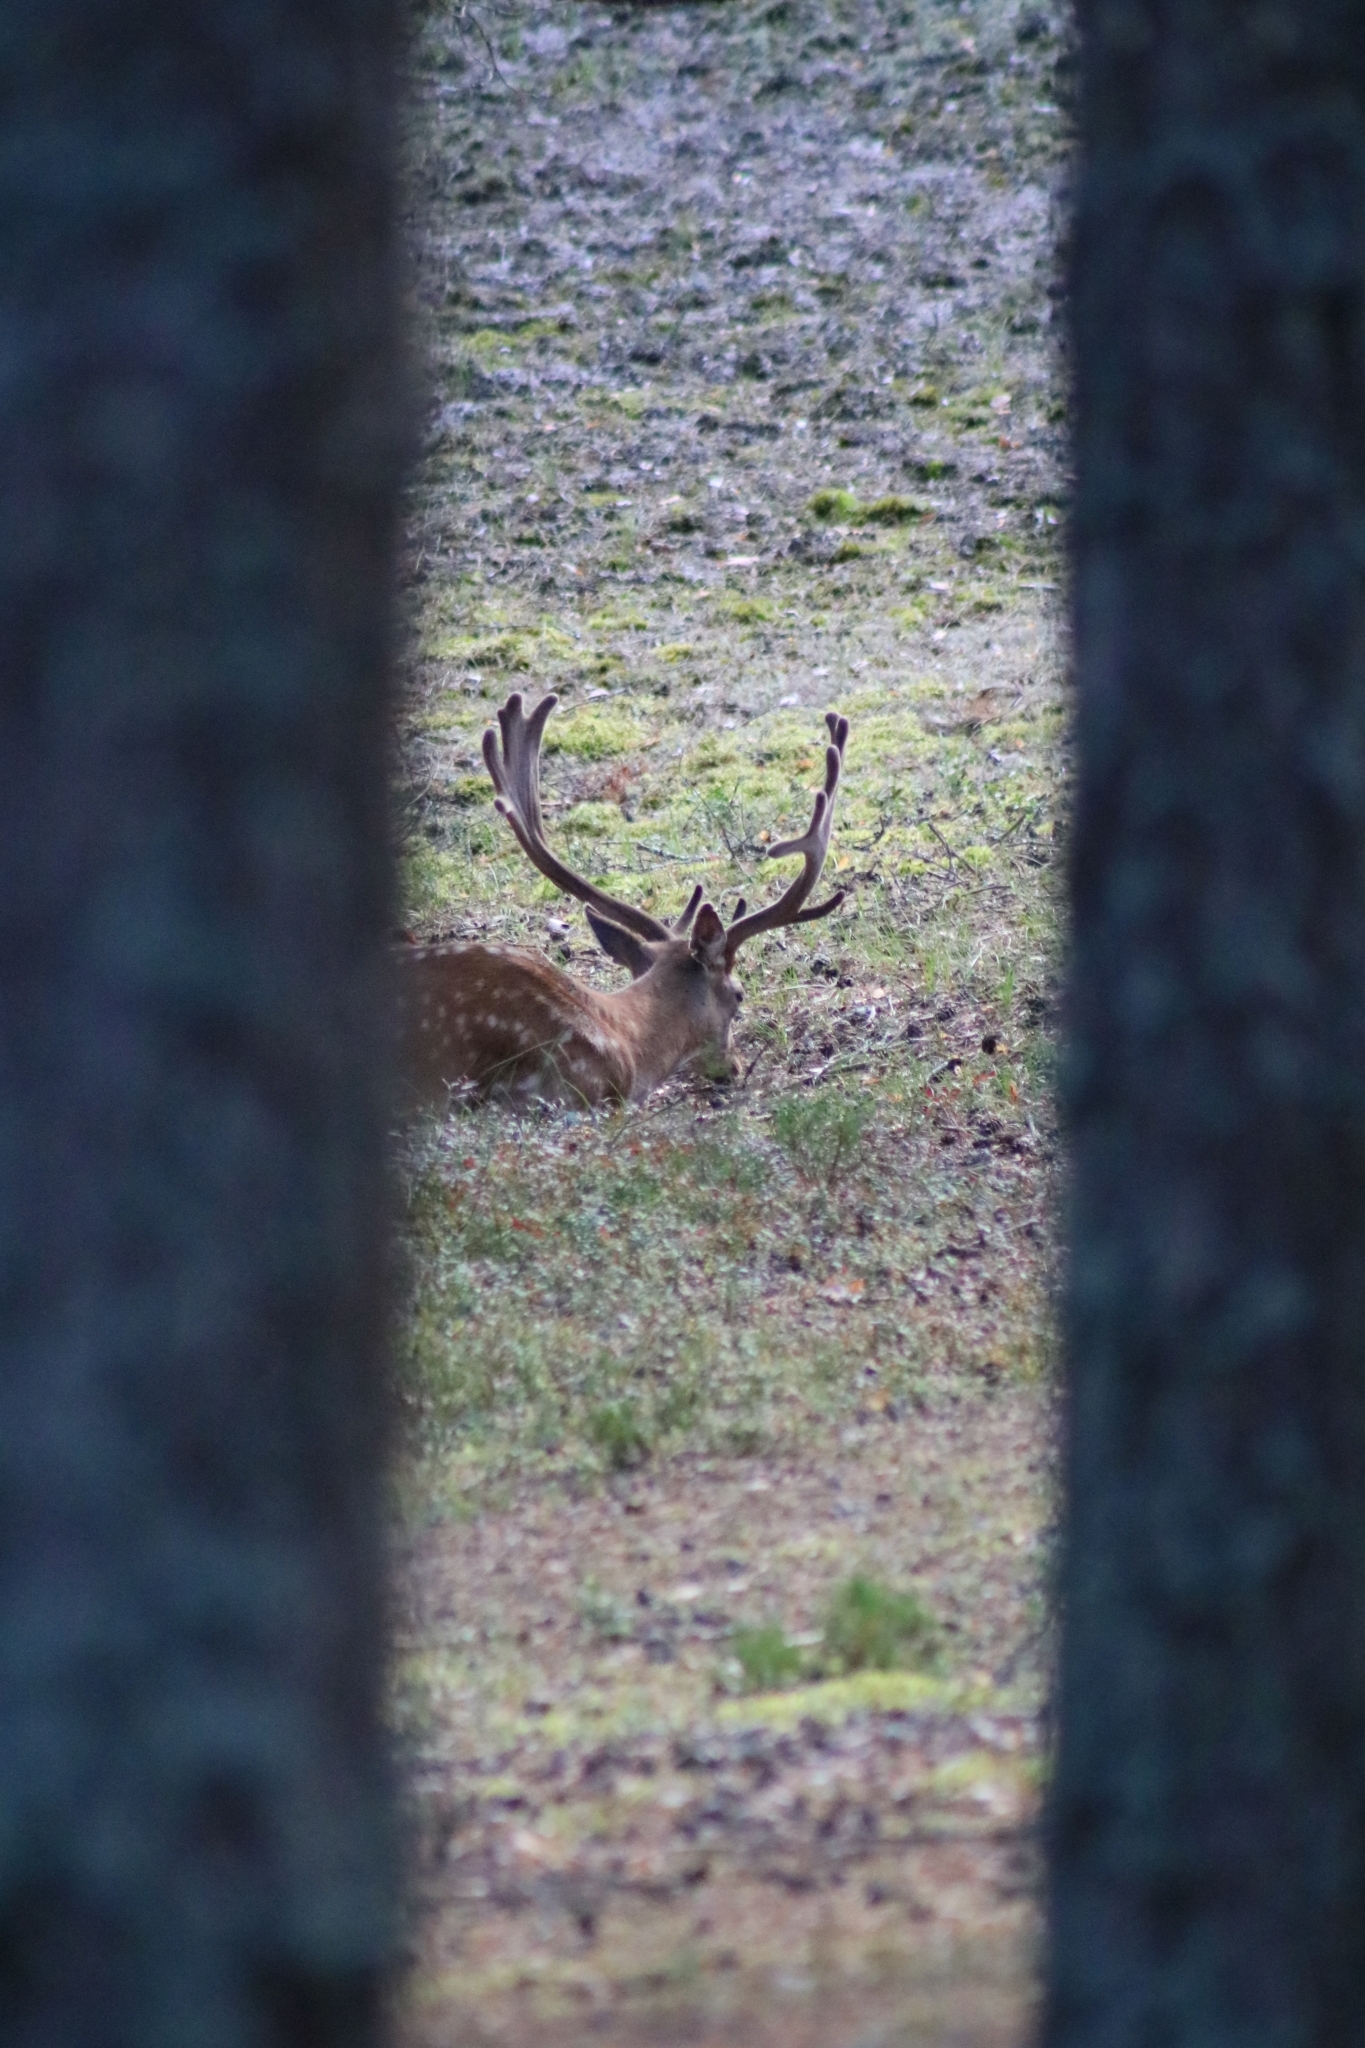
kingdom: Animalia
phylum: Chordata
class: Mammalia
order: Artiodactyla
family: Cervidae
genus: Dama
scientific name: Dama dama
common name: Fallow deer
